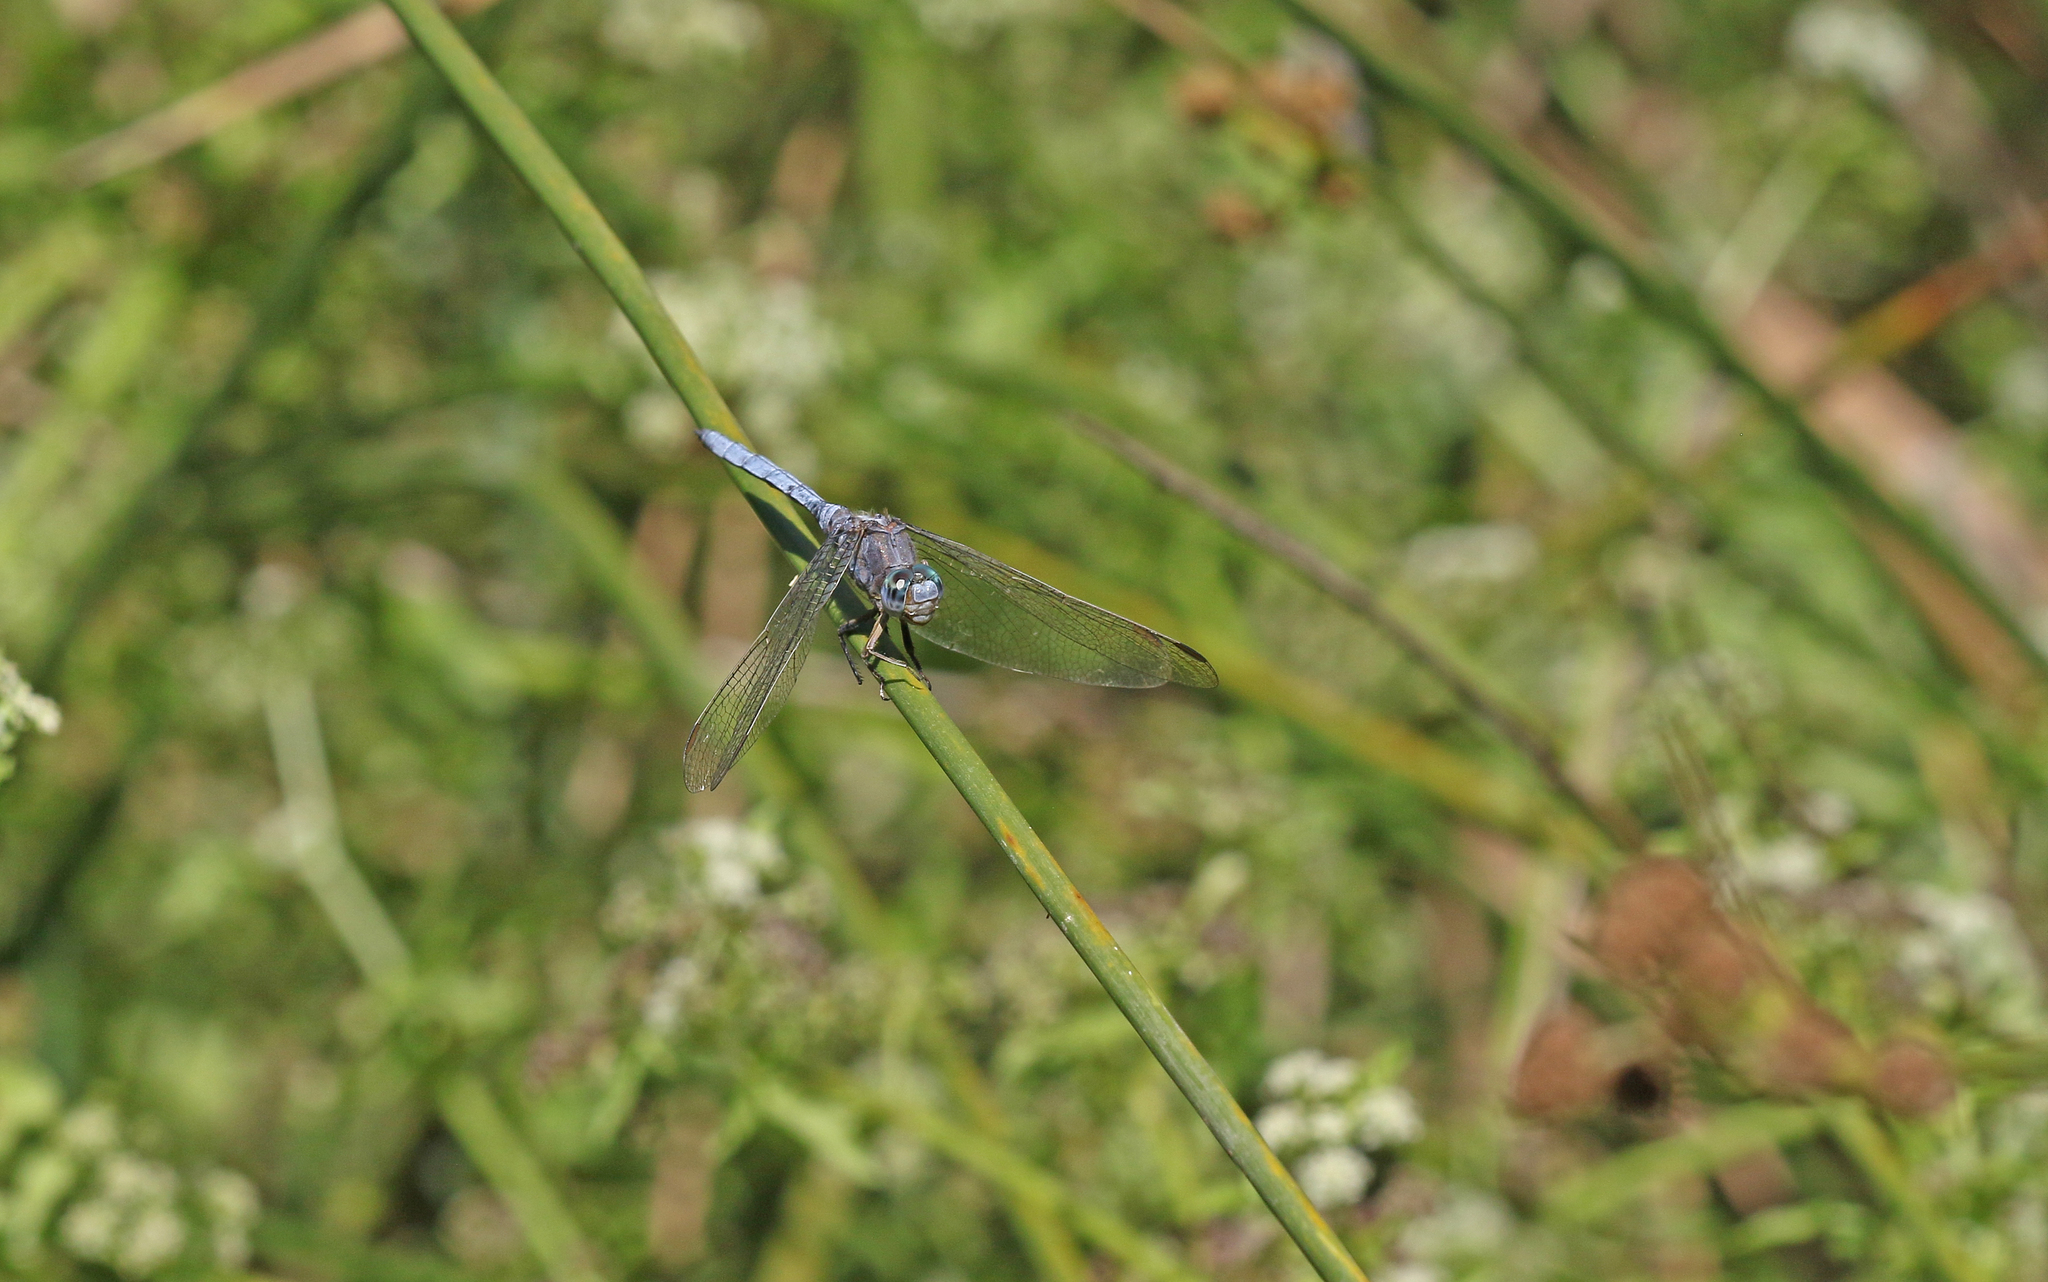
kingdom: Animalia
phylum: Arthropoda
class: Insecta
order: Odonata
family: Libellulidae
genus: Orthetrum
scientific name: Orthetrum chrysostigma
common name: Epaulet skimmer
